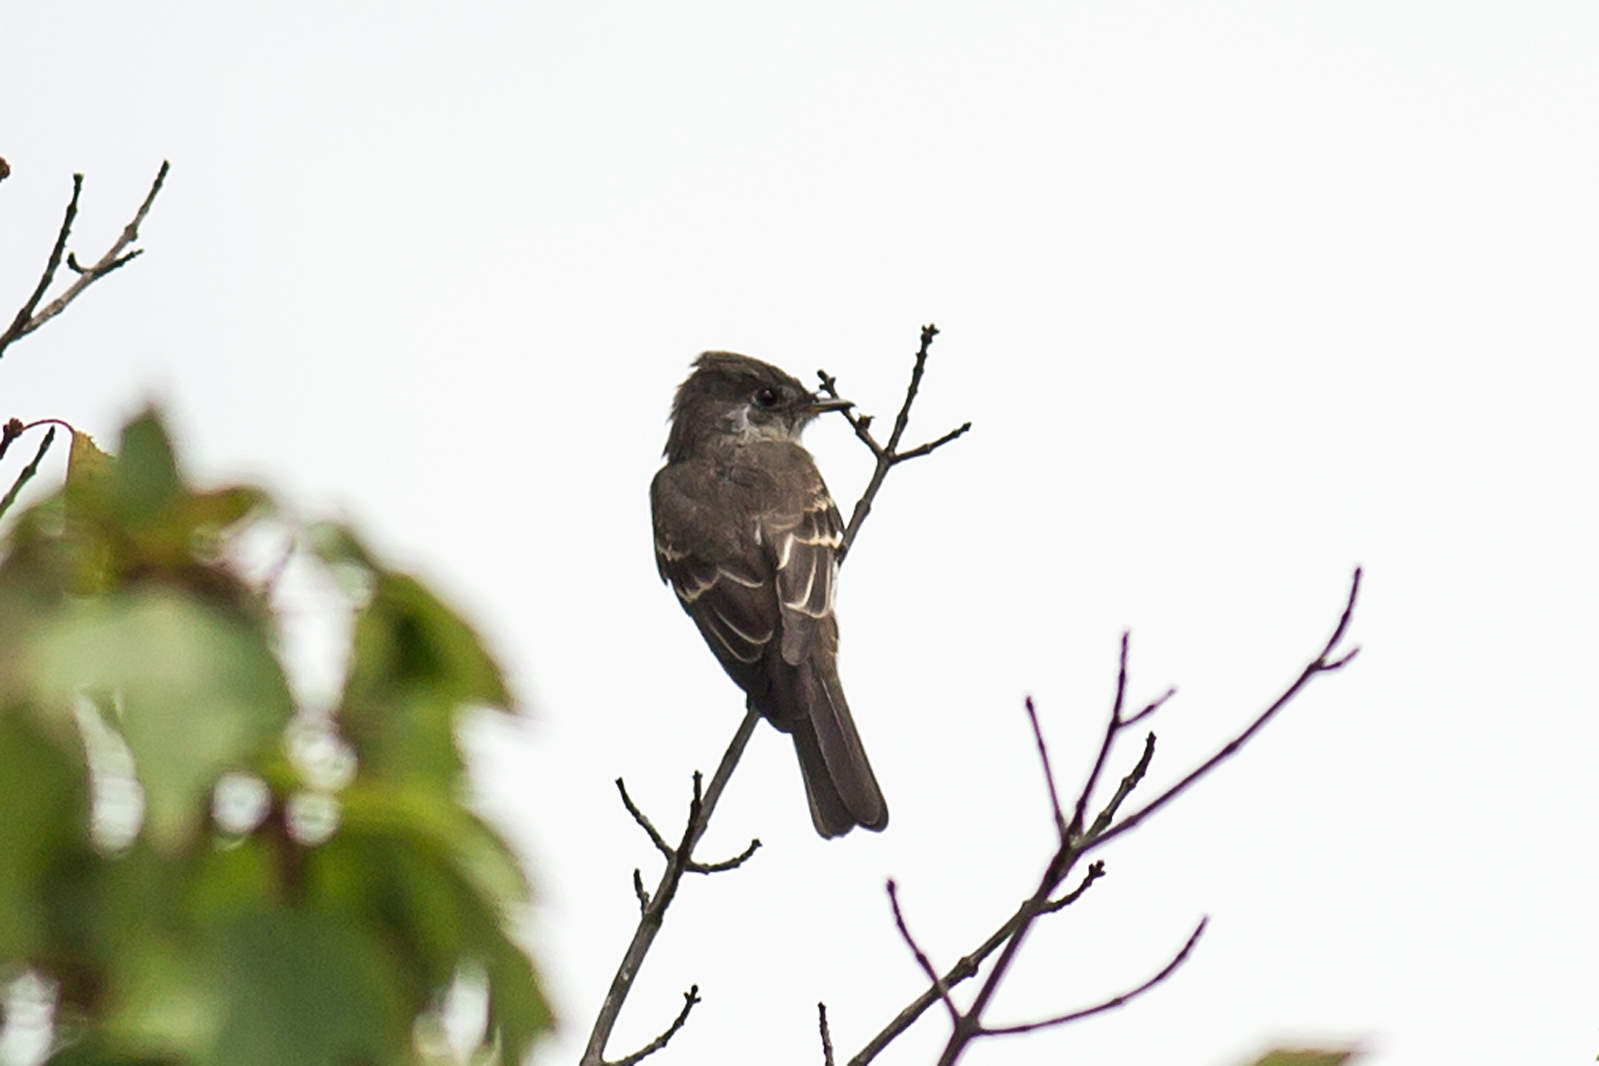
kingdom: Animalia
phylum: Chordata
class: Aves
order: Passeriformes
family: Tyrannidae
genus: Contopus
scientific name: Contopus virens
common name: Eastern wood-pewee
